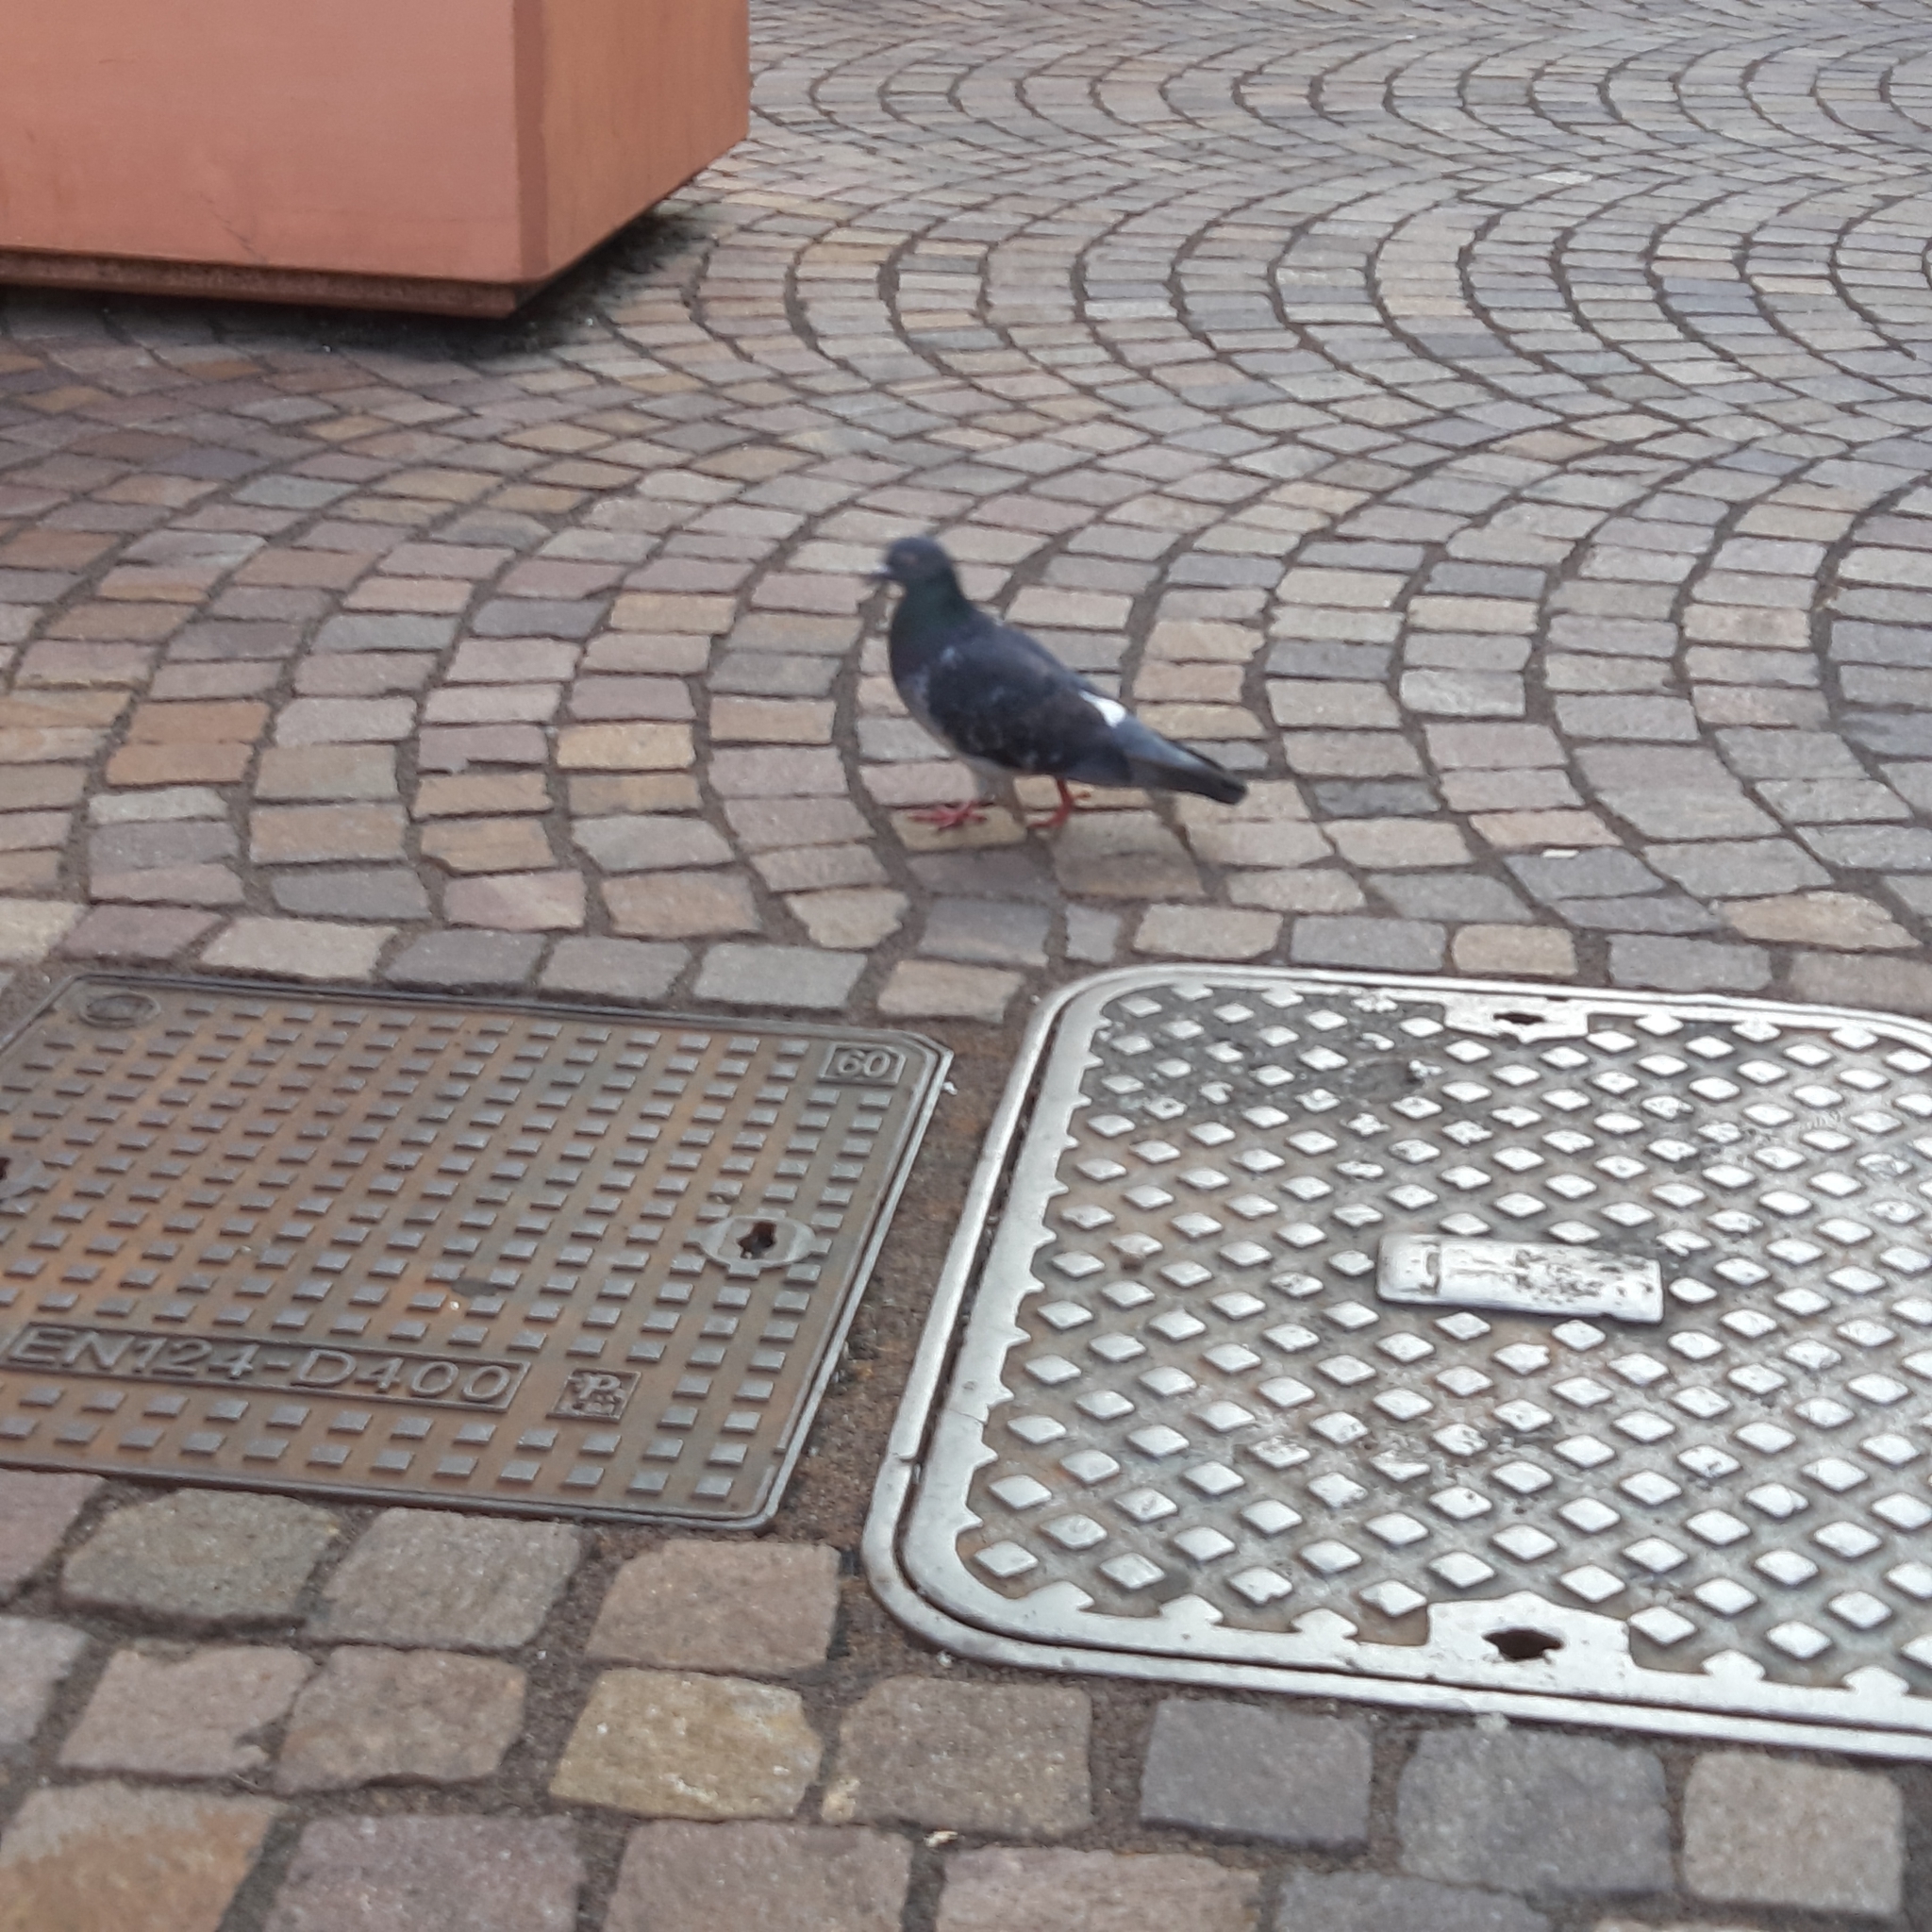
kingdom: Animalia
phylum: Chordata
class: Aves
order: Columbiformes
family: Columbidae
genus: Columba
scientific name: Columba livia
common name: Rock pigeon
